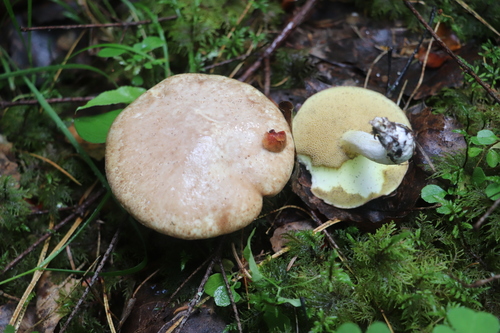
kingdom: Fungi
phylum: Basidiomycota
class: Agaricomycetes
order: Boletales
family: Suillaceae
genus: Suillus
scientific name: Suillus placidus
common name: Slippery white bolete
